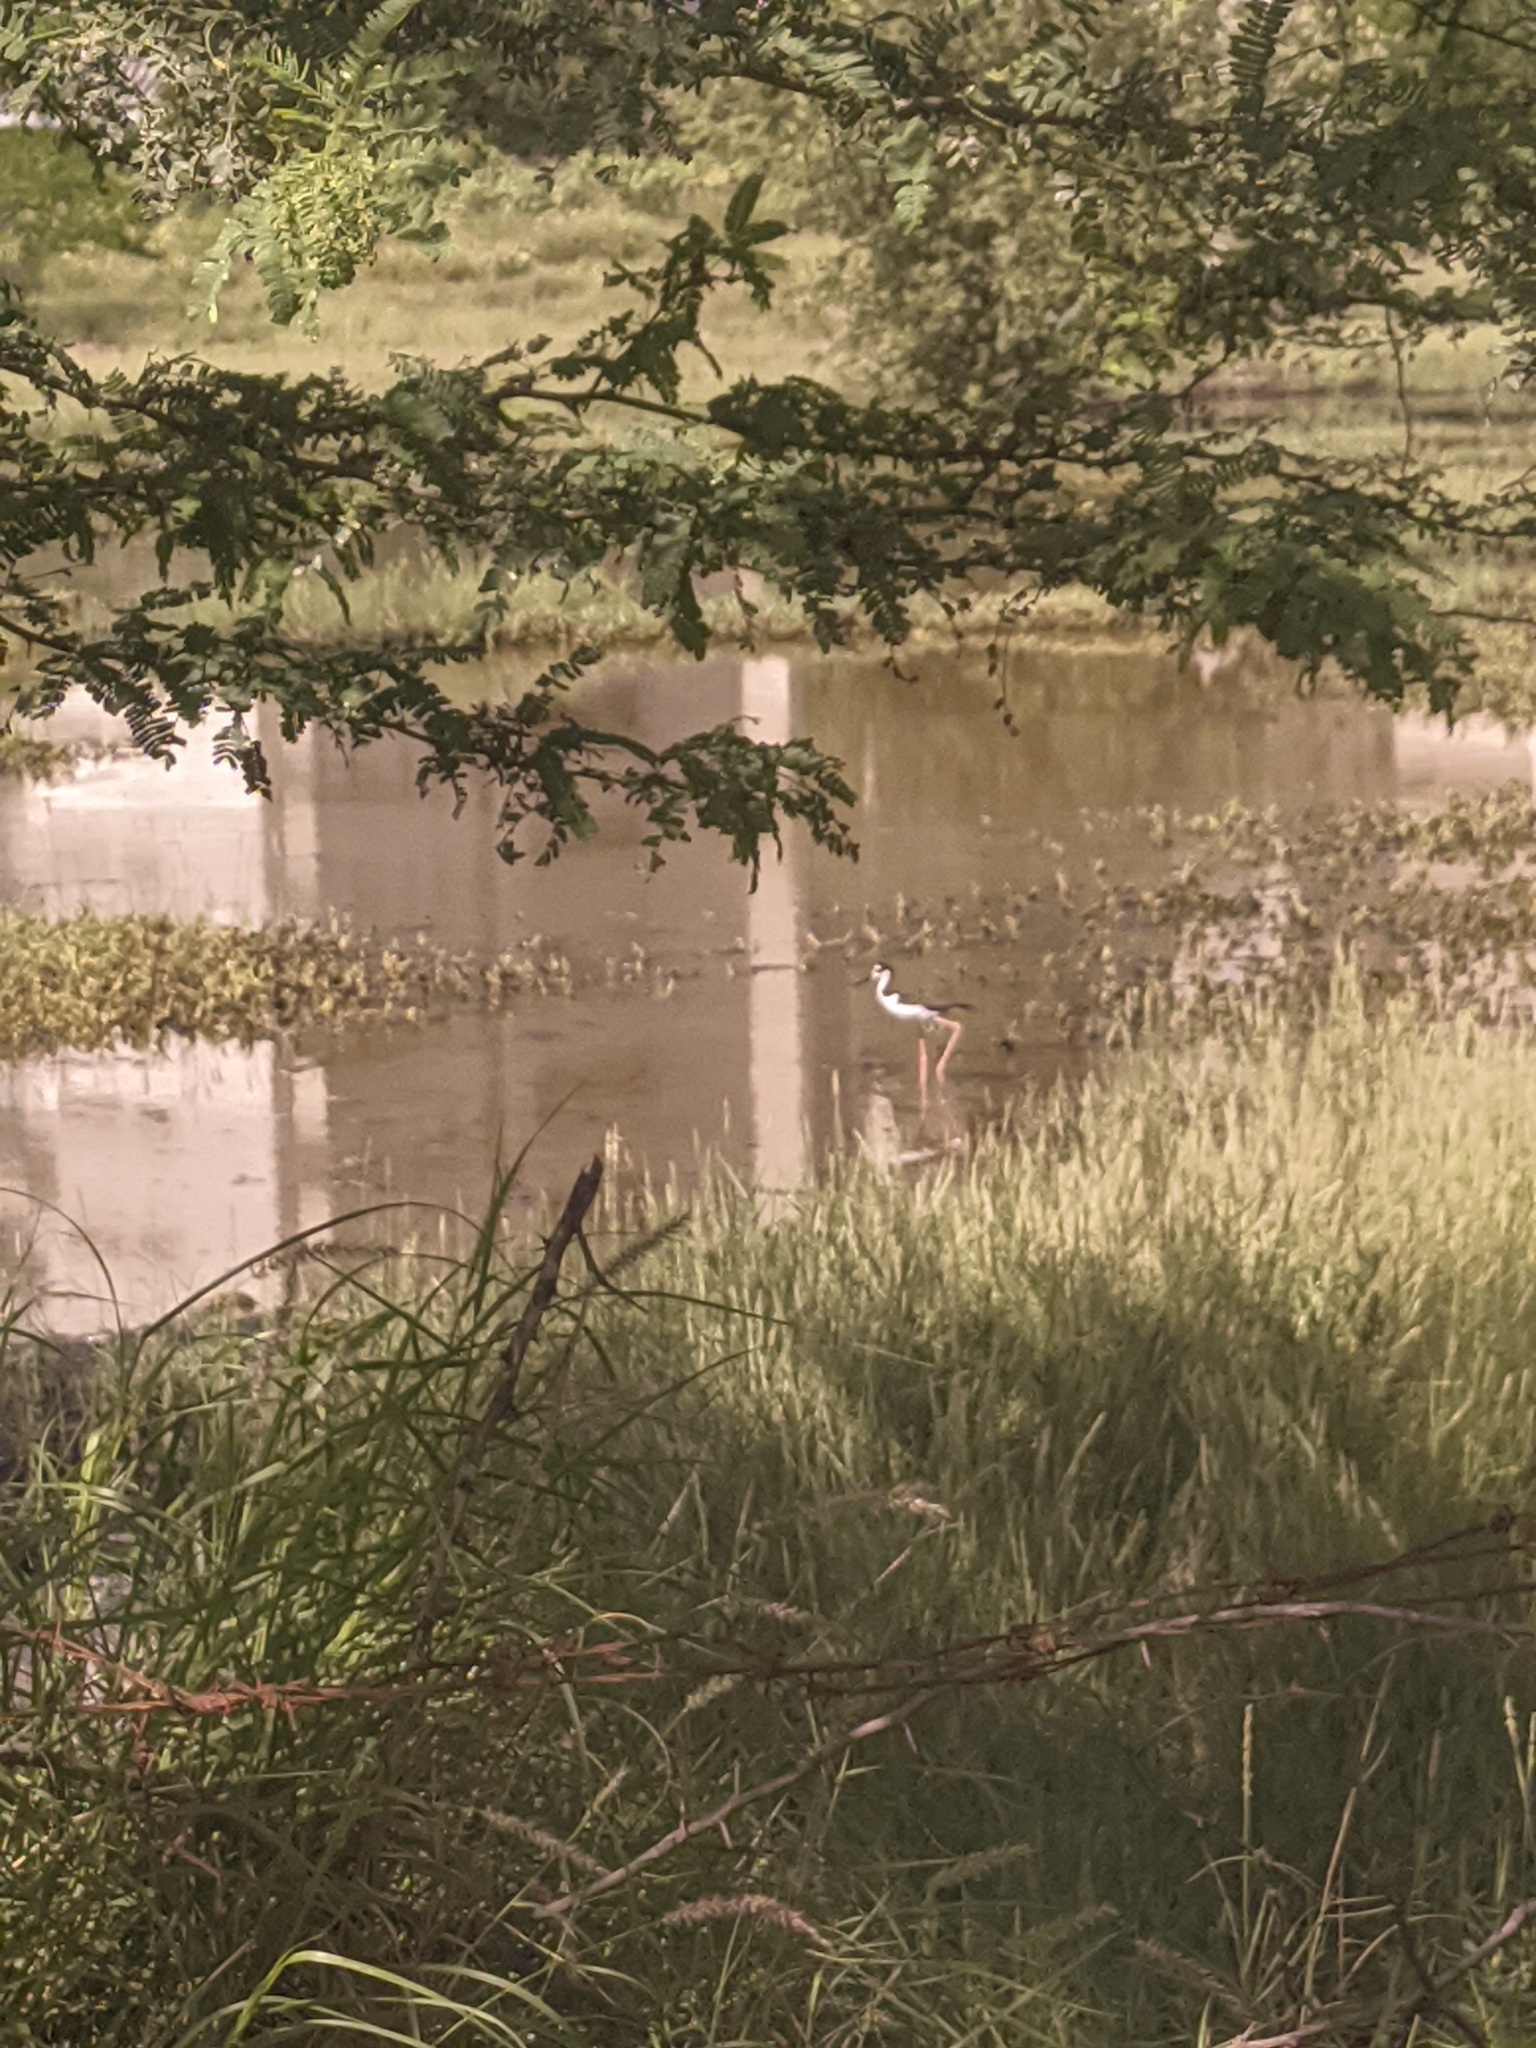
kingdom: Animalia
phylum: Chordata
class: Aves
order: Charadriiformes
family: Recurvirostridae
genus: Himantopus
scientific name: Himantopus mexicanus
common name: Black-necked stilt
